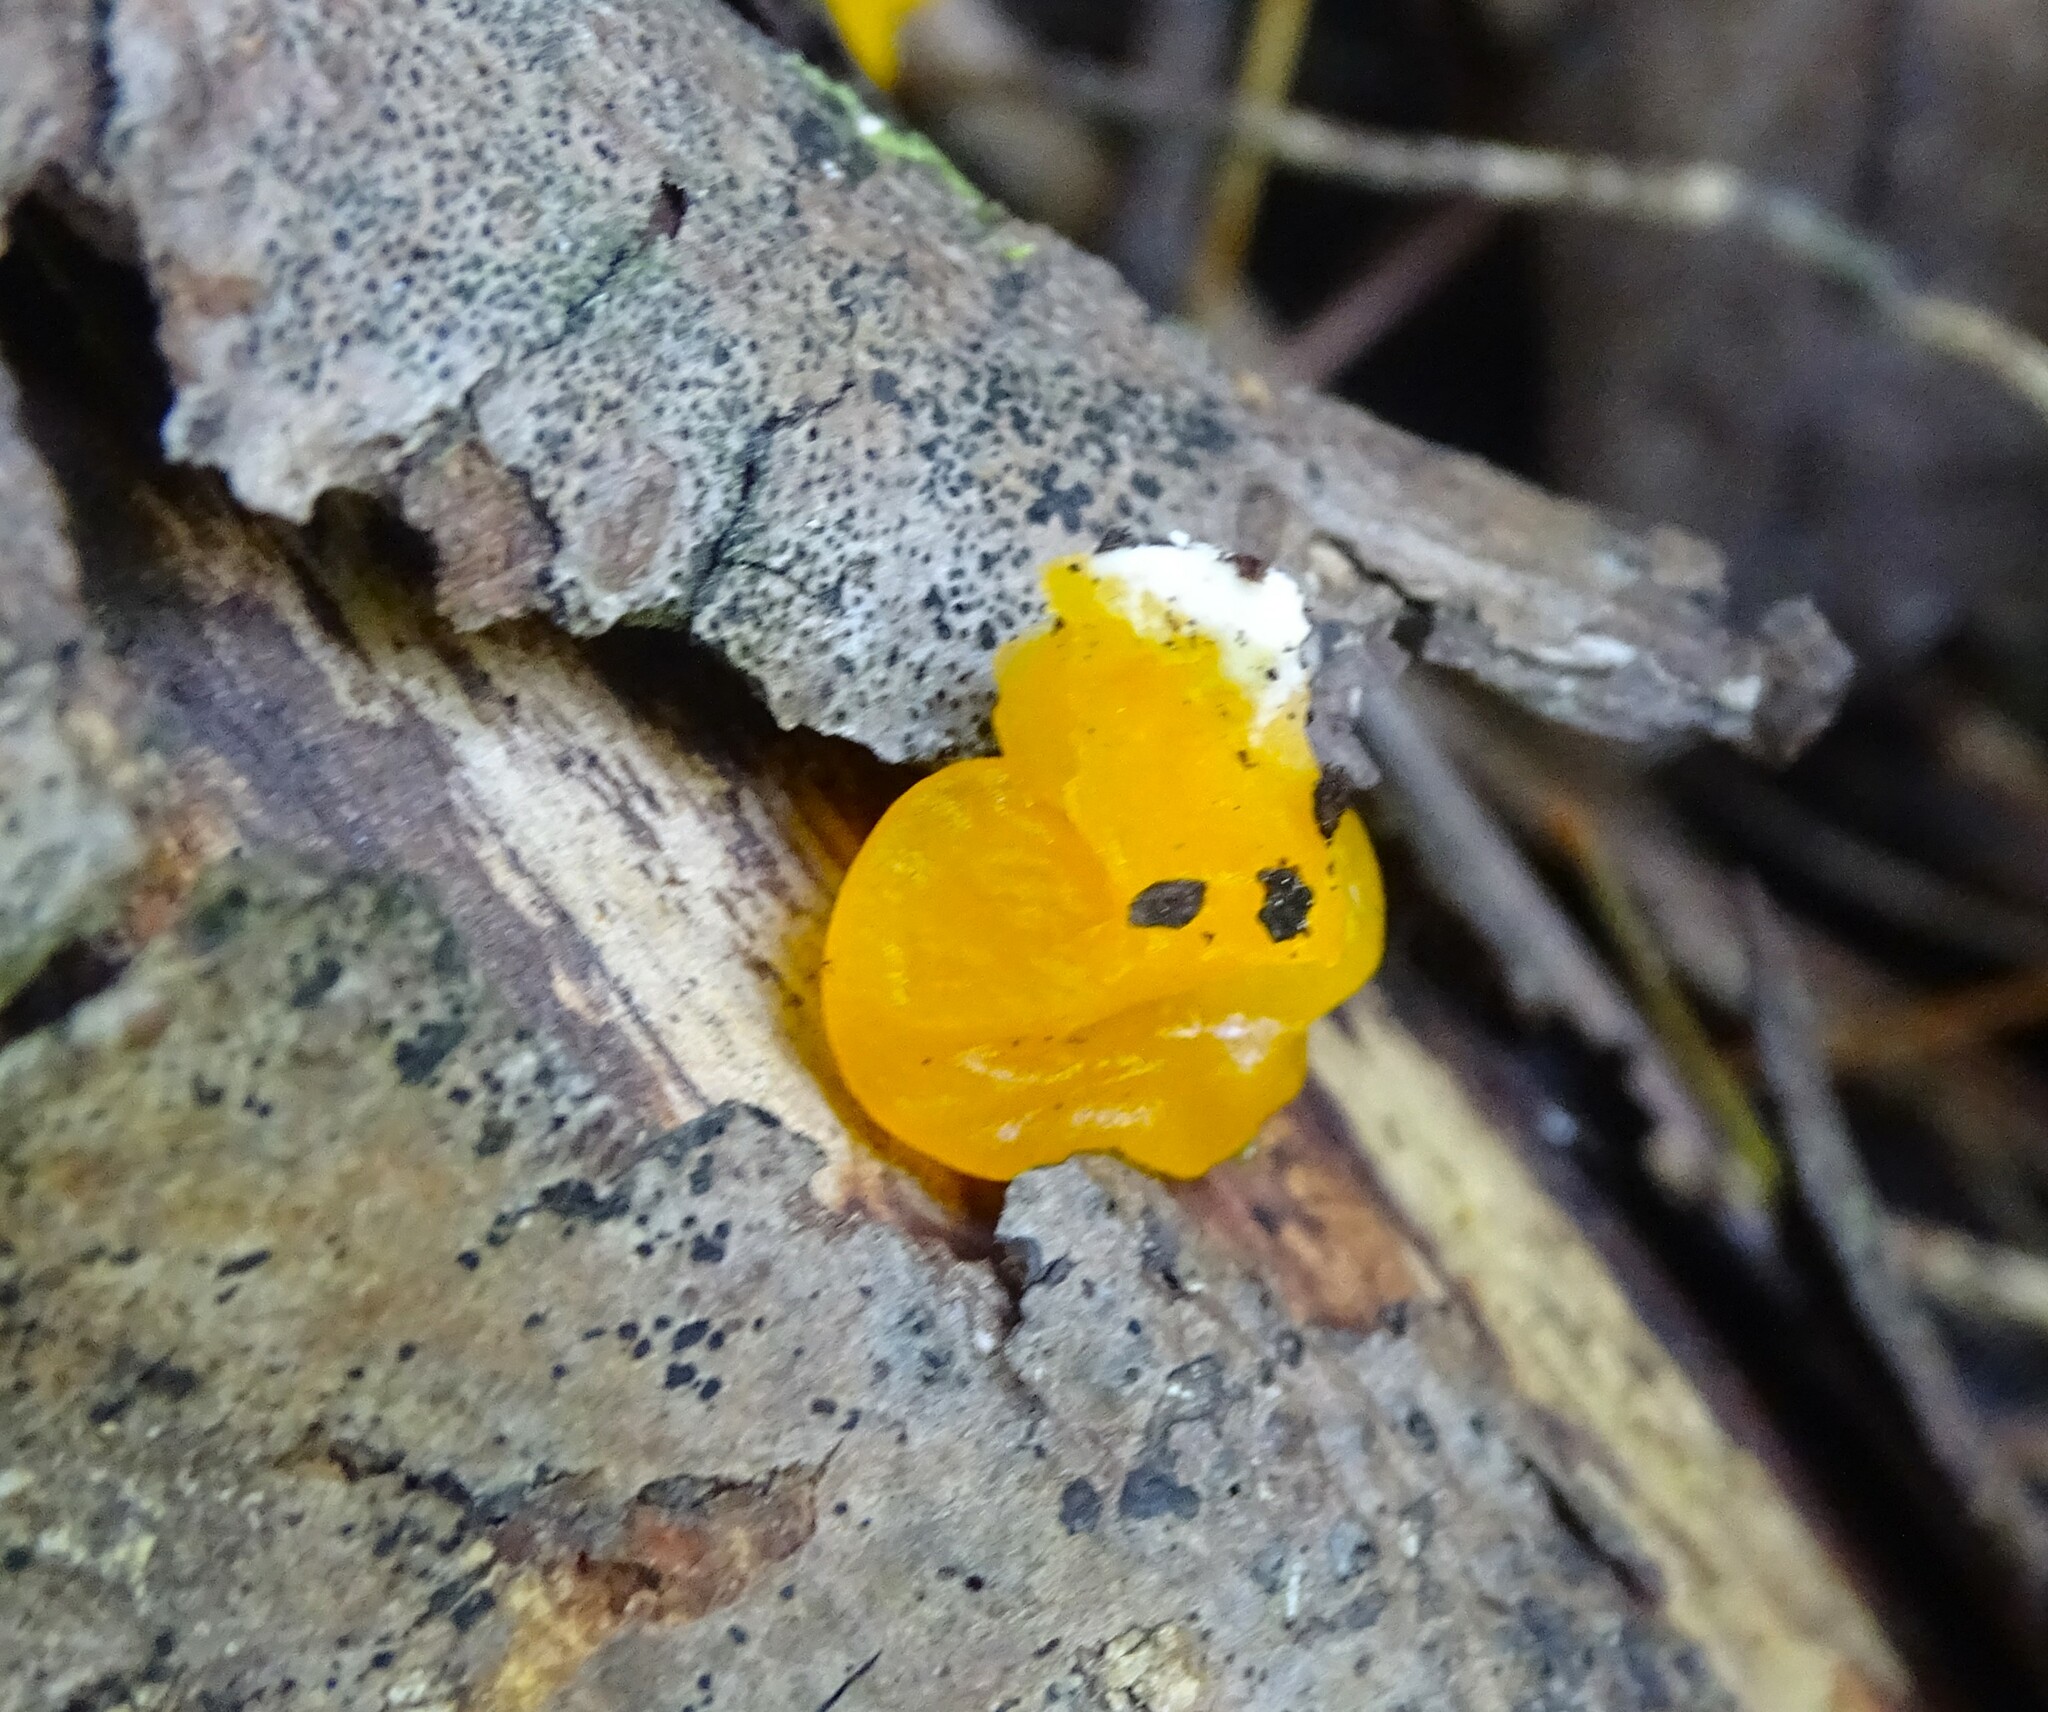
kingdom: Fungi
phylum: Basidiomycota
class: Dacrymycetes
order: Dacrymycetales
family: Dacrymycetaceae
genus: Dacrymyces
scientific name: Dacrymyces chrysospermus
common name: Orange jelly spot
